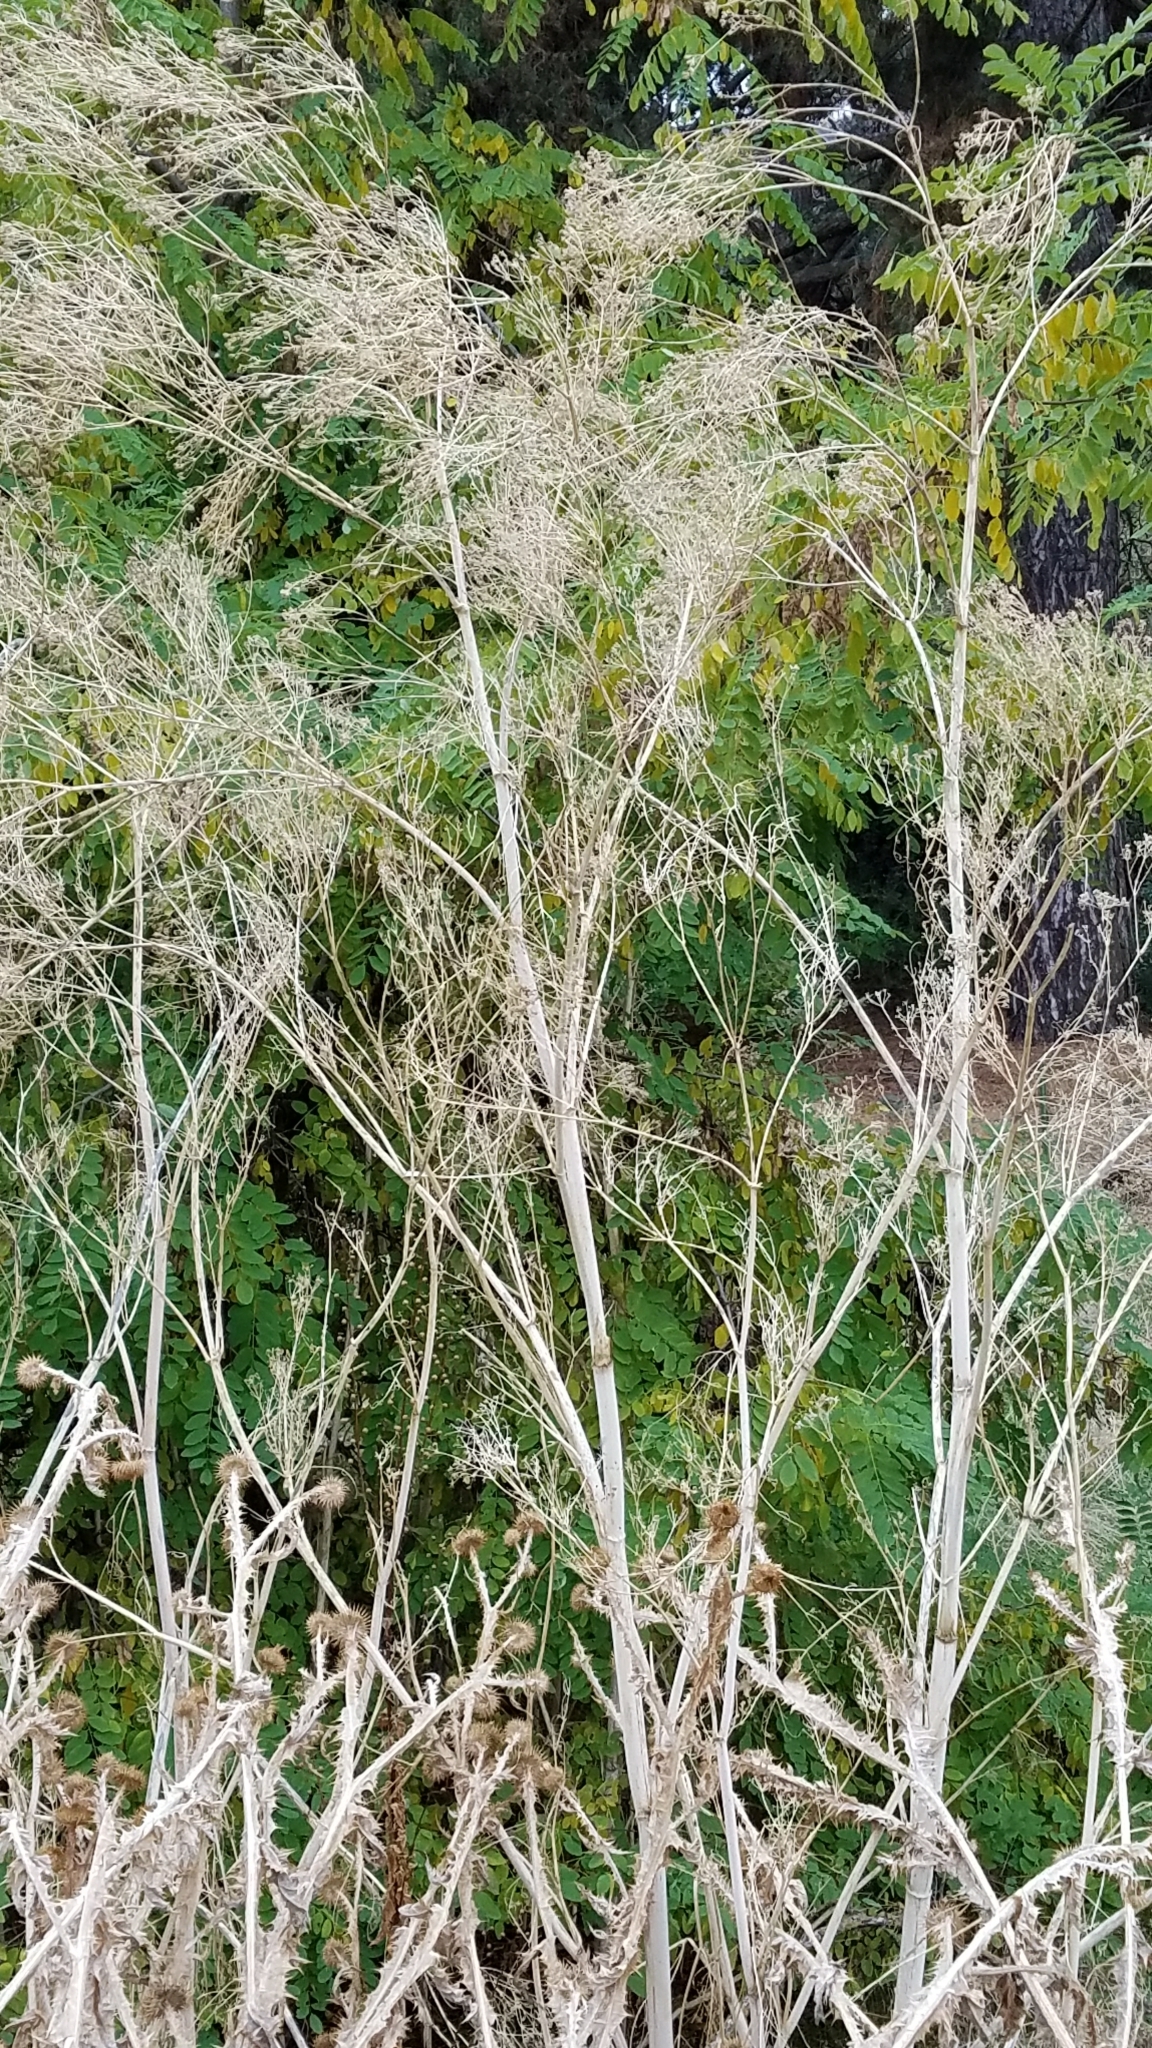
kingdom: Plantae
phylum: Tracheophyta
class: Magnoliopsida
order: Apiales
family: Apiaceae
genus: Conium
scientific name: Conium maculatum
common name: Hemlock
